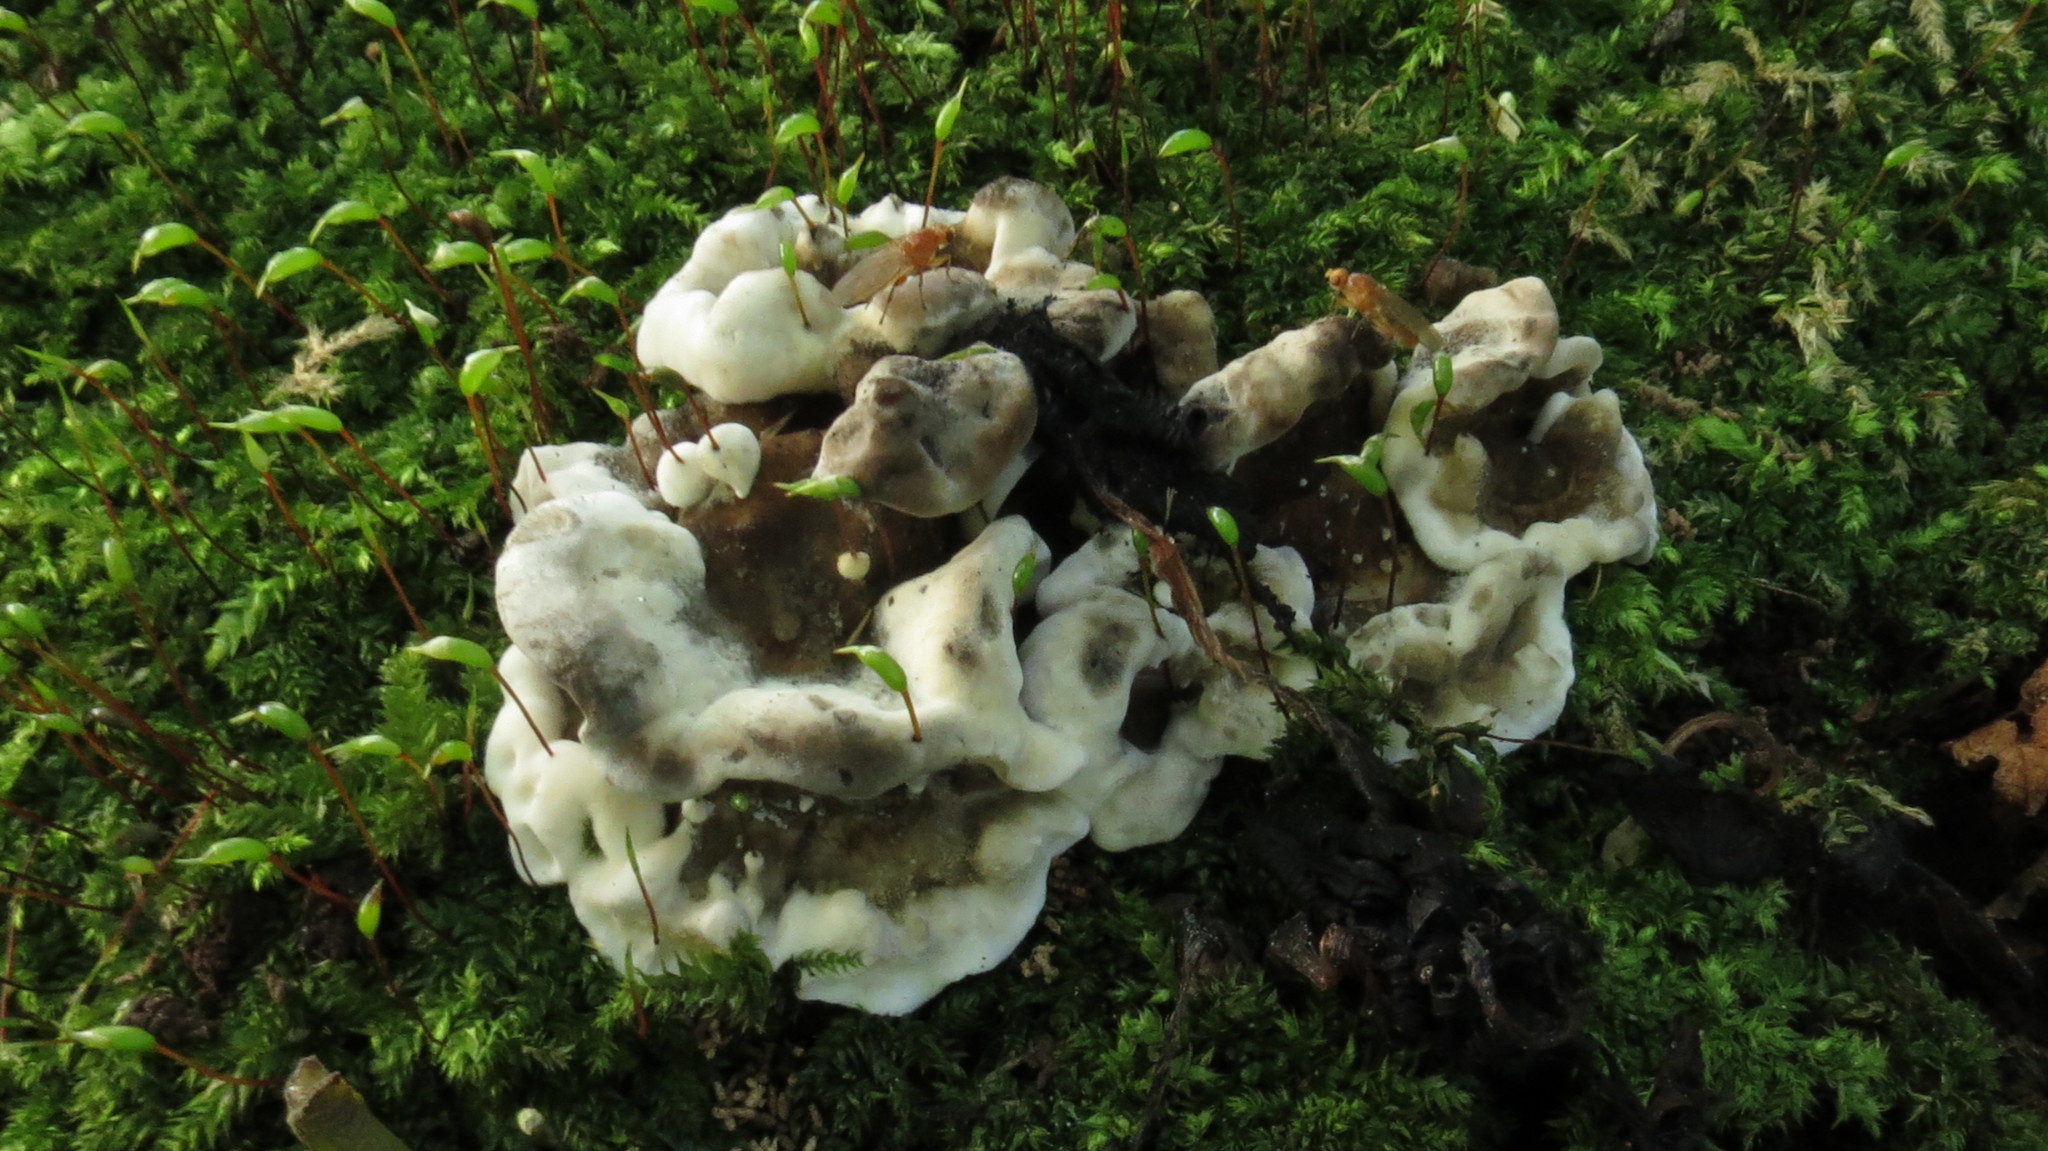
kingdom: Fungi
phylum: Basidiomycota
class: Agaricomycetes
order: Polyporales
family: Phanerochaetaceae
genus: Bjerkandera
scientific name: Bjerkandera adusta
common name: Smoky bracket
